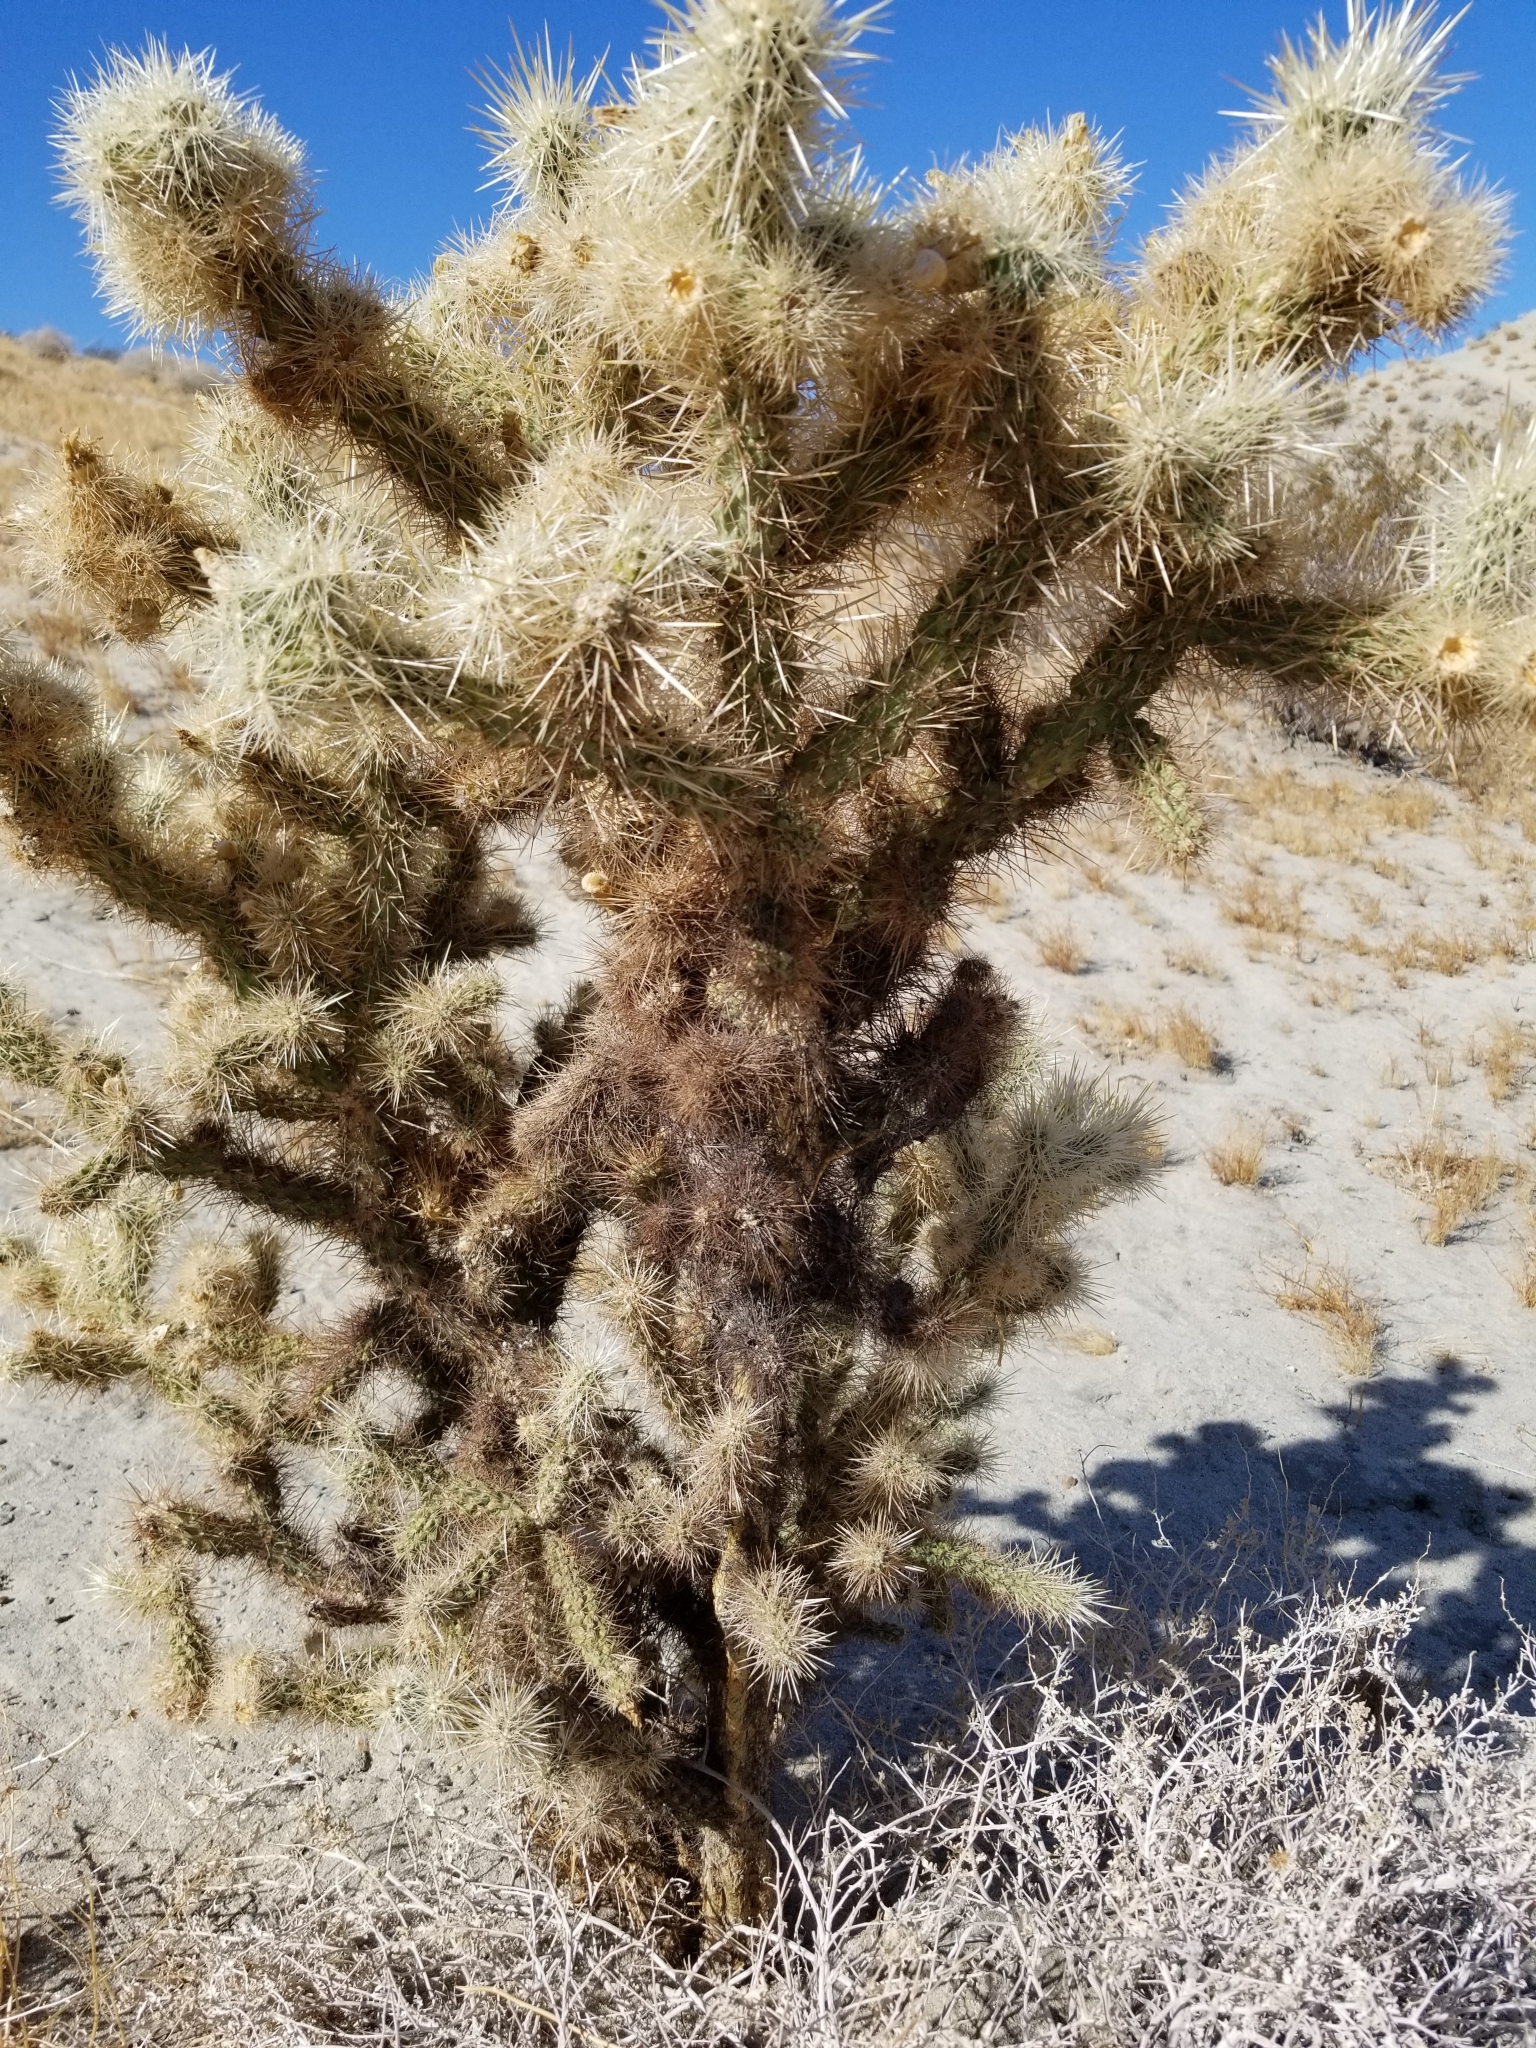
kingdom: Plantae
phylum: Tracheophyta
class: Magnoliopsida
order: Caryophyllales
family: Cactaceae
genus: Cylindropuntia
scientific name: Cylindropuntia echinocarpa
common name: Ground cholla
